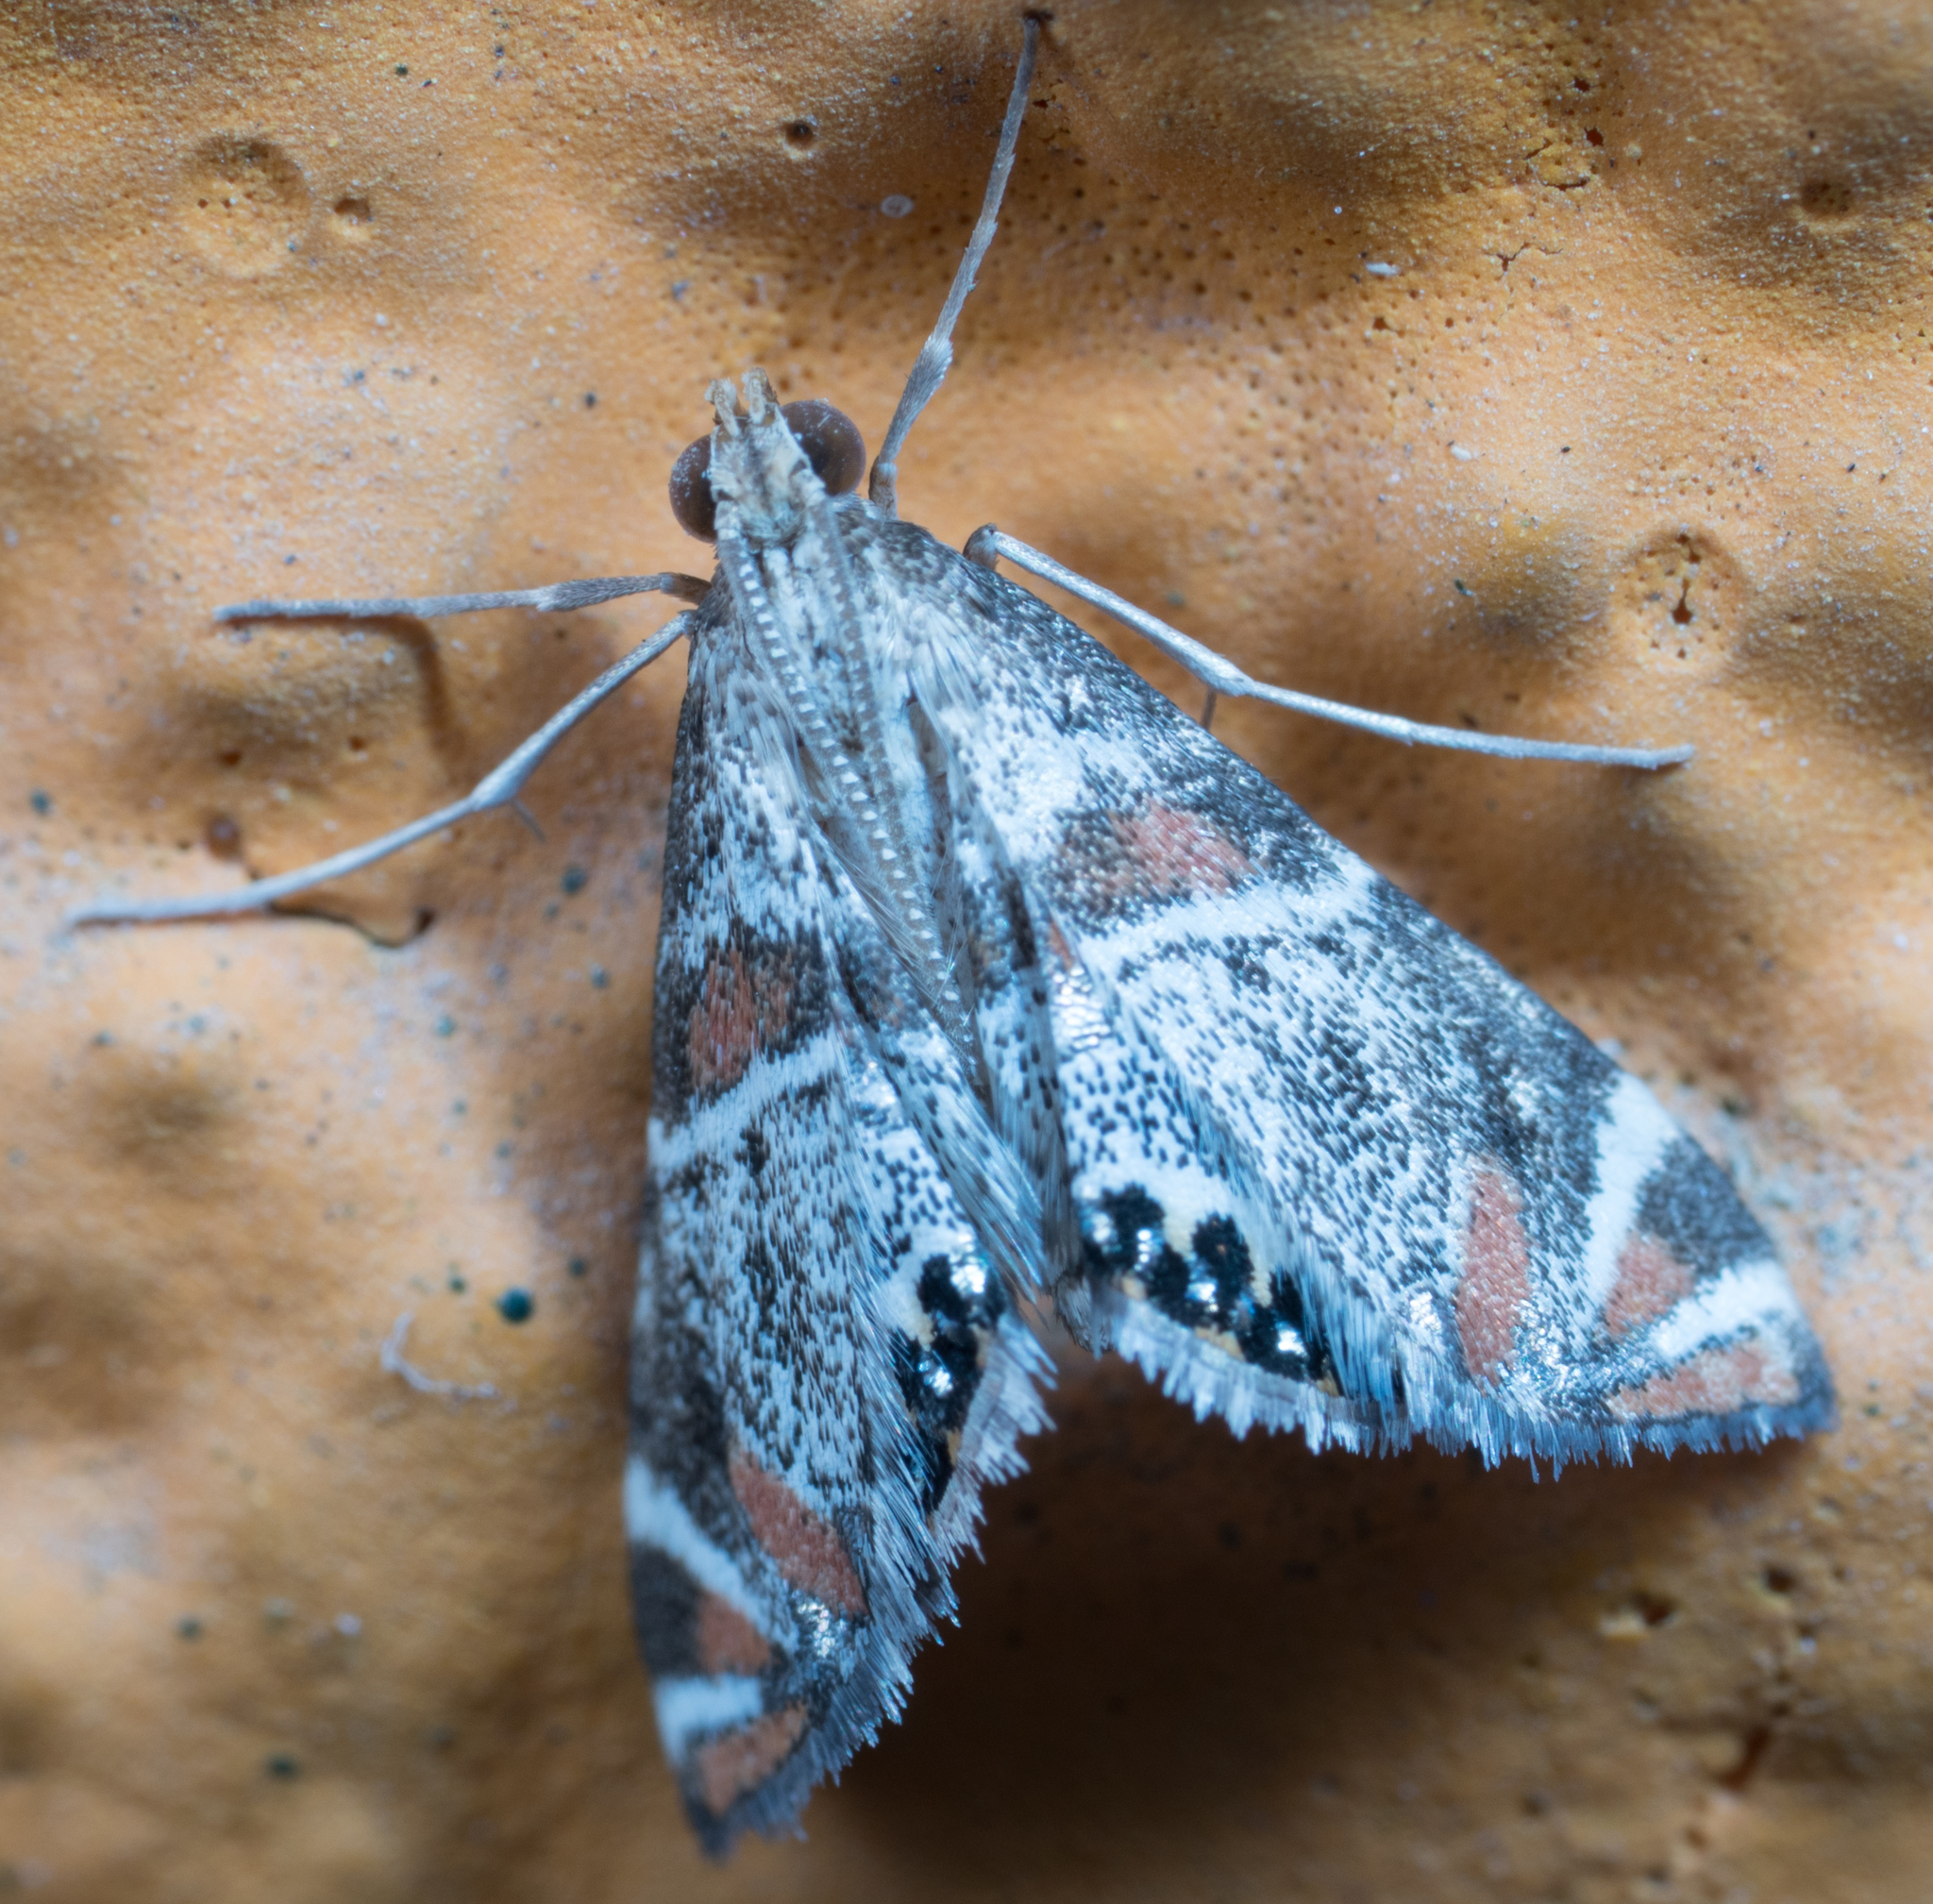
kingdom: Animalia
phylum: Arthropoda
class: Insecta
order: Lepidoptera
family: Crambidae
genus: Petrophila
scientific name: Petrophila jaliscalis
